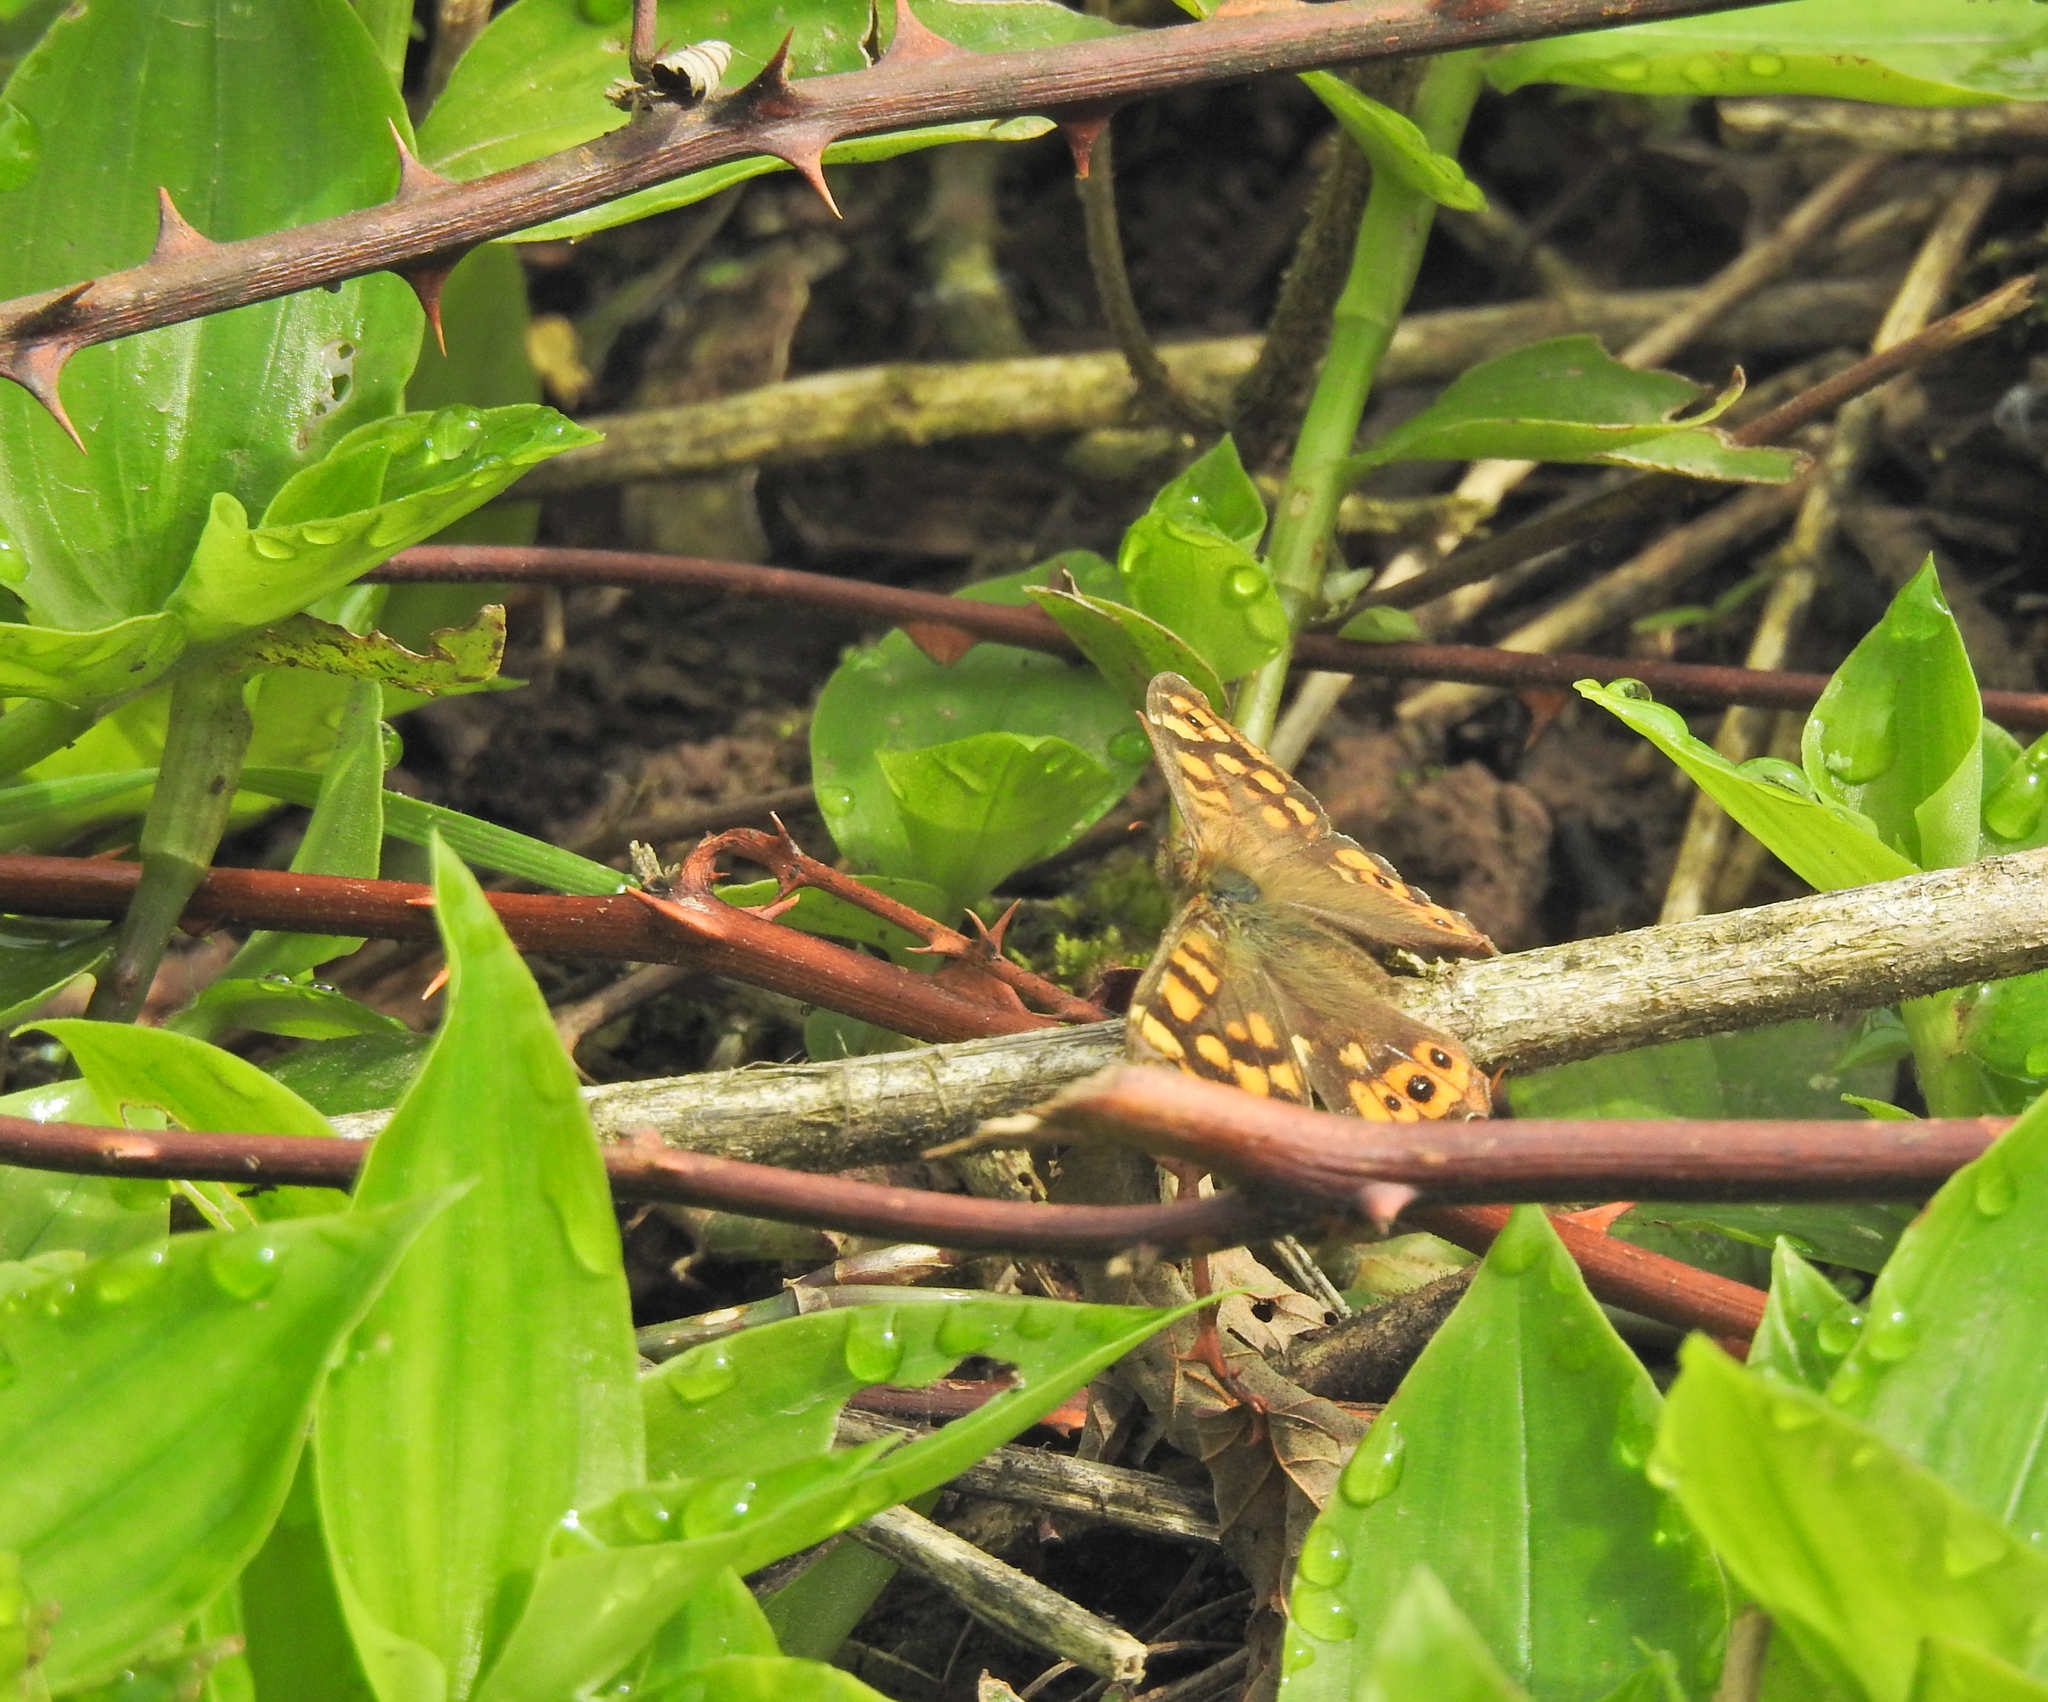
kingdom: Animalia
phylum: Arthropoda
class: Insecta
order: Lepidoptera
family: Nymphalidae
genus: Pararge
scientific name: Pararge aegeria
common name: Speckled wood
